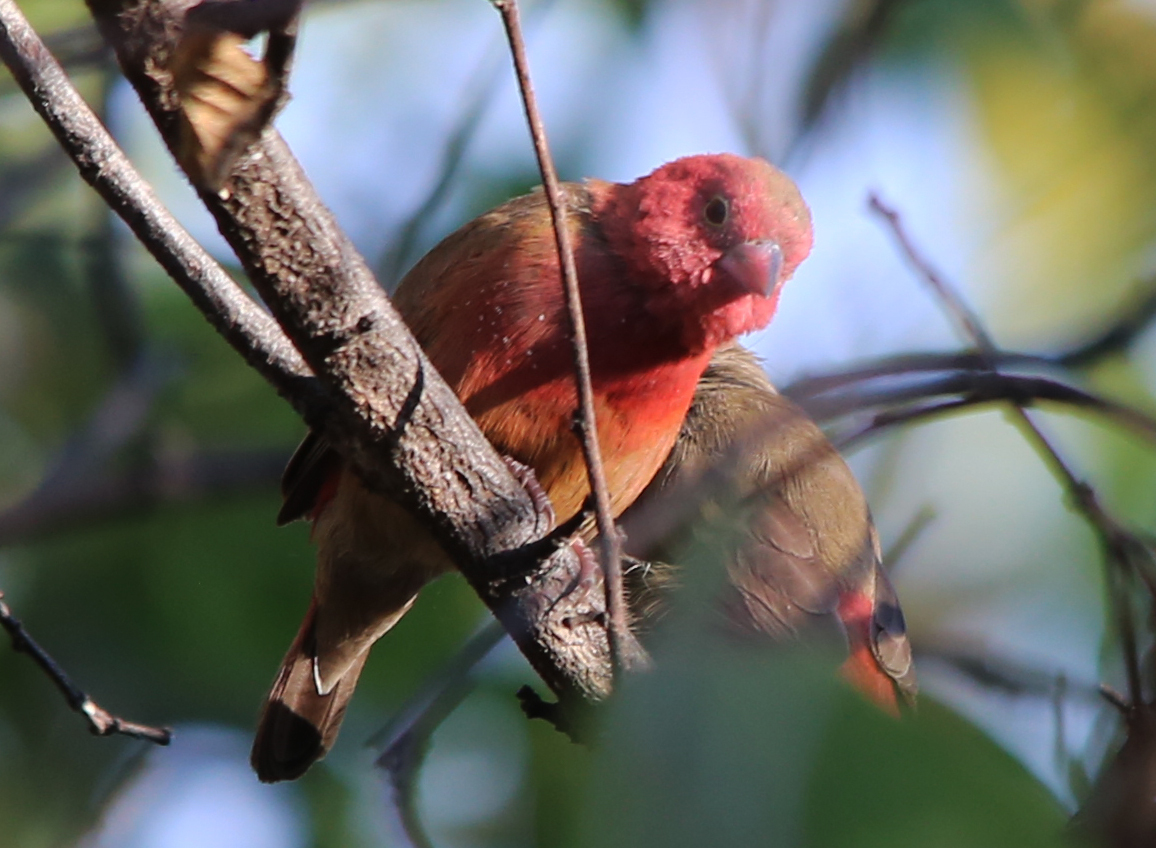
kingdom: Animalia
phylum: Chordata
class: Aves
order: Passeriformes
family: Estrildidae
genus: Lagonosticta
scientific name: Lagonosticta senegala
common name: Red-billed firefinch
